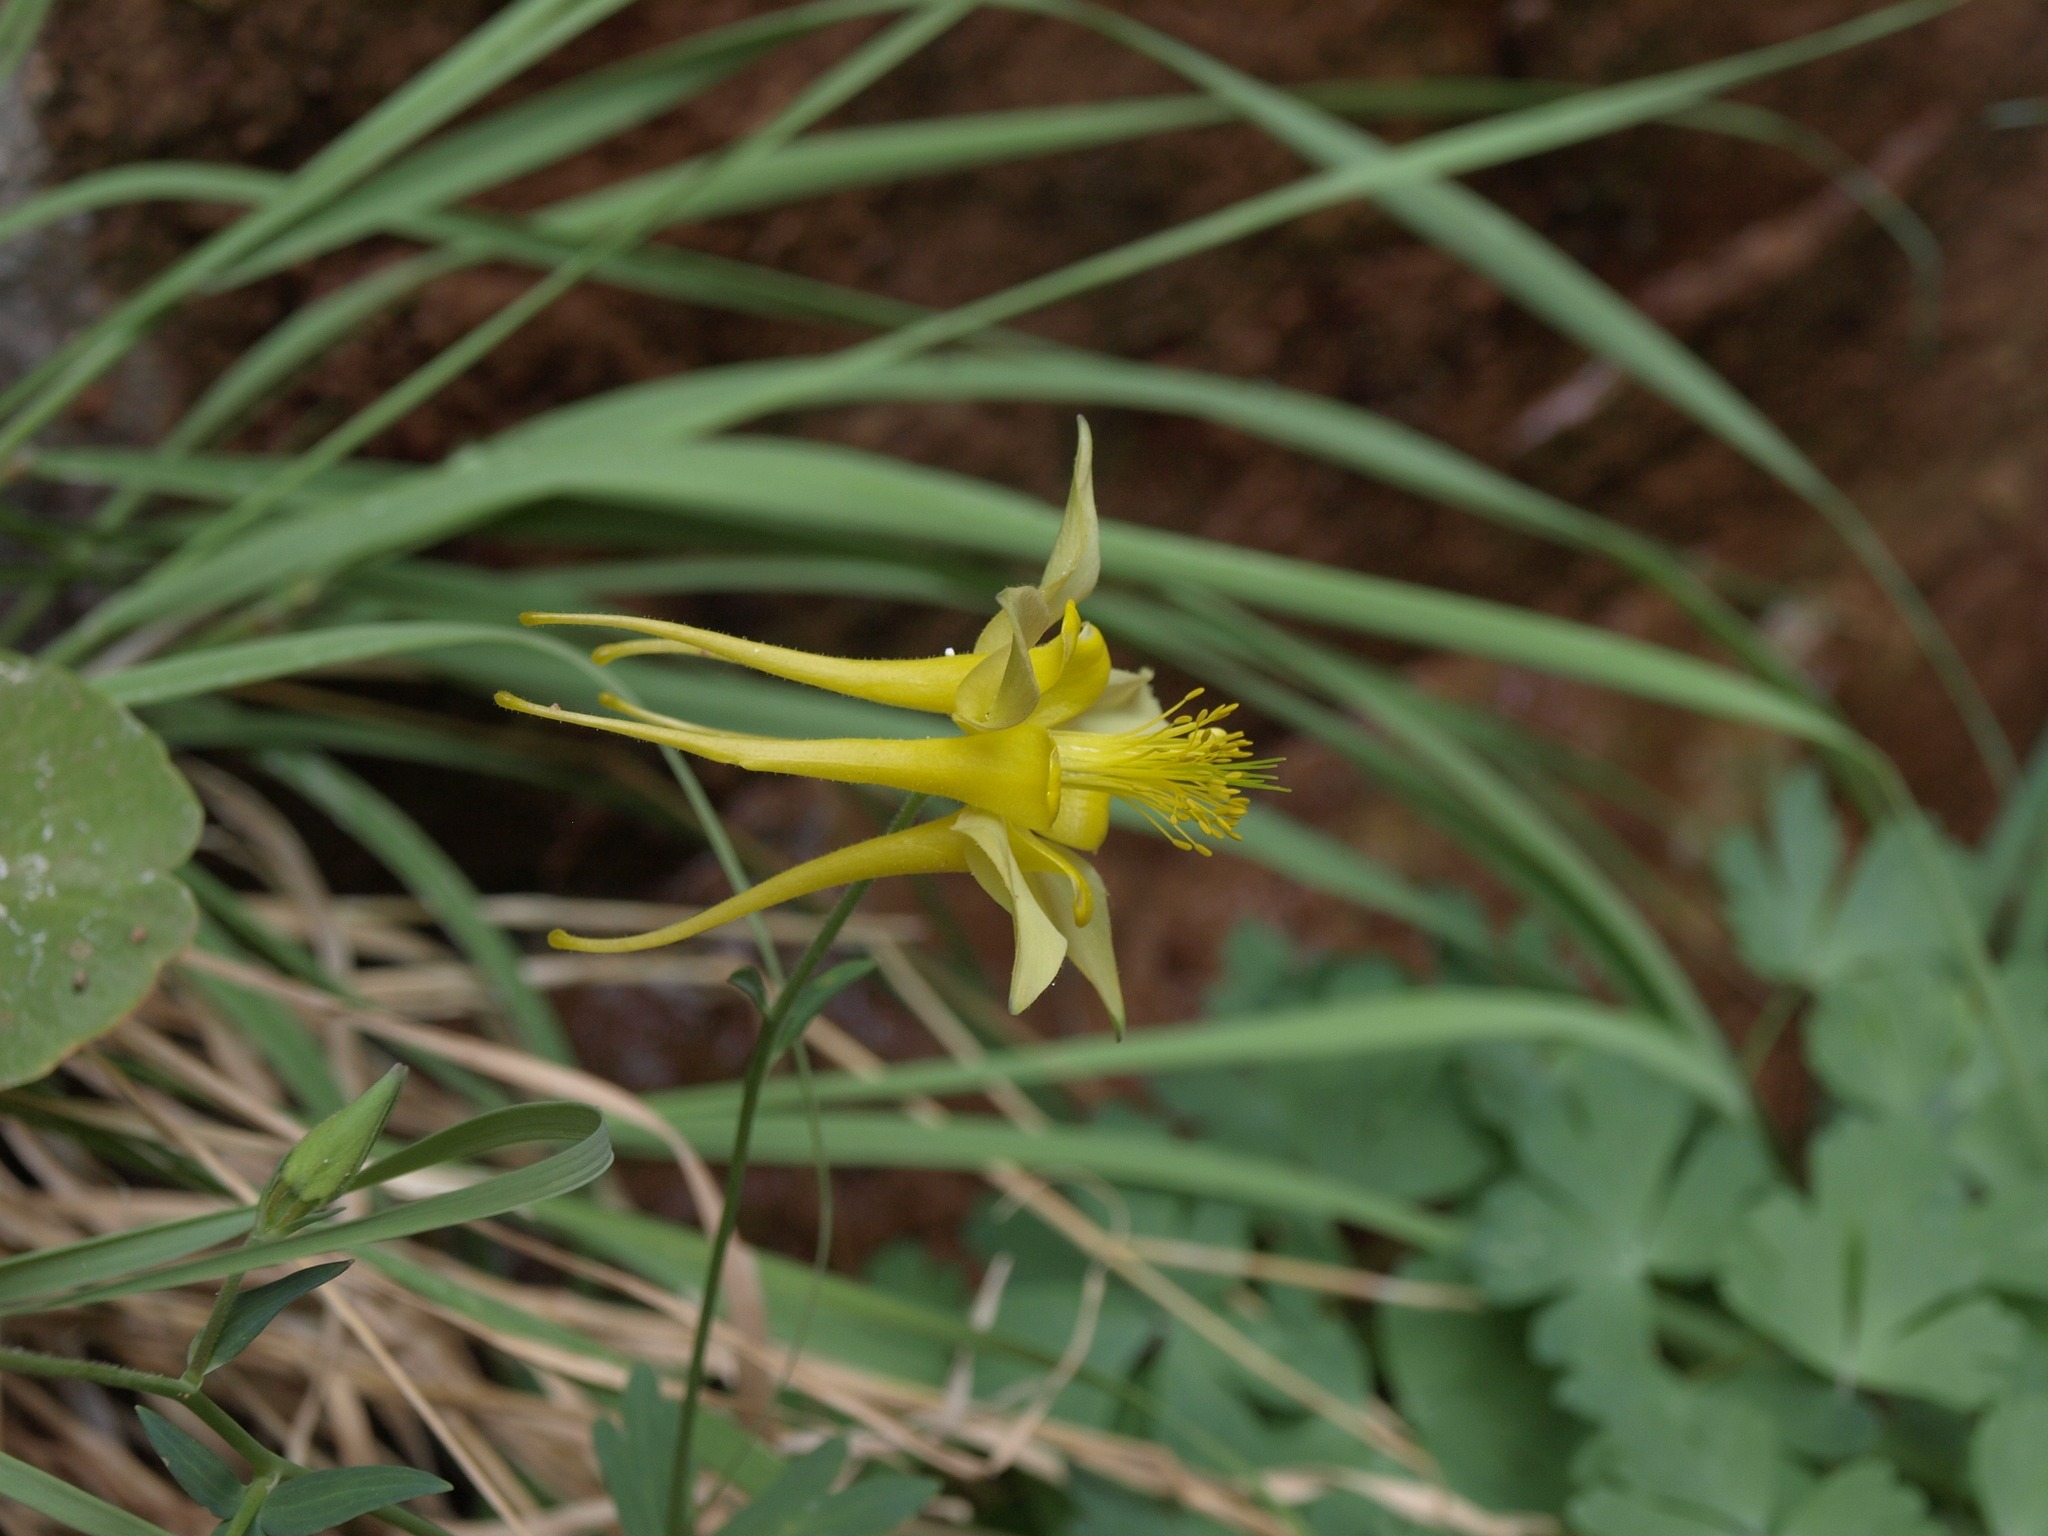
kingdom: Plantae
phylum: Tracheophyta
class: Magnoliopsida
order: Ranunculales
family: Ranunculaceae
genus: Aquilegia
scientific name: Aquilegia chrysantha
